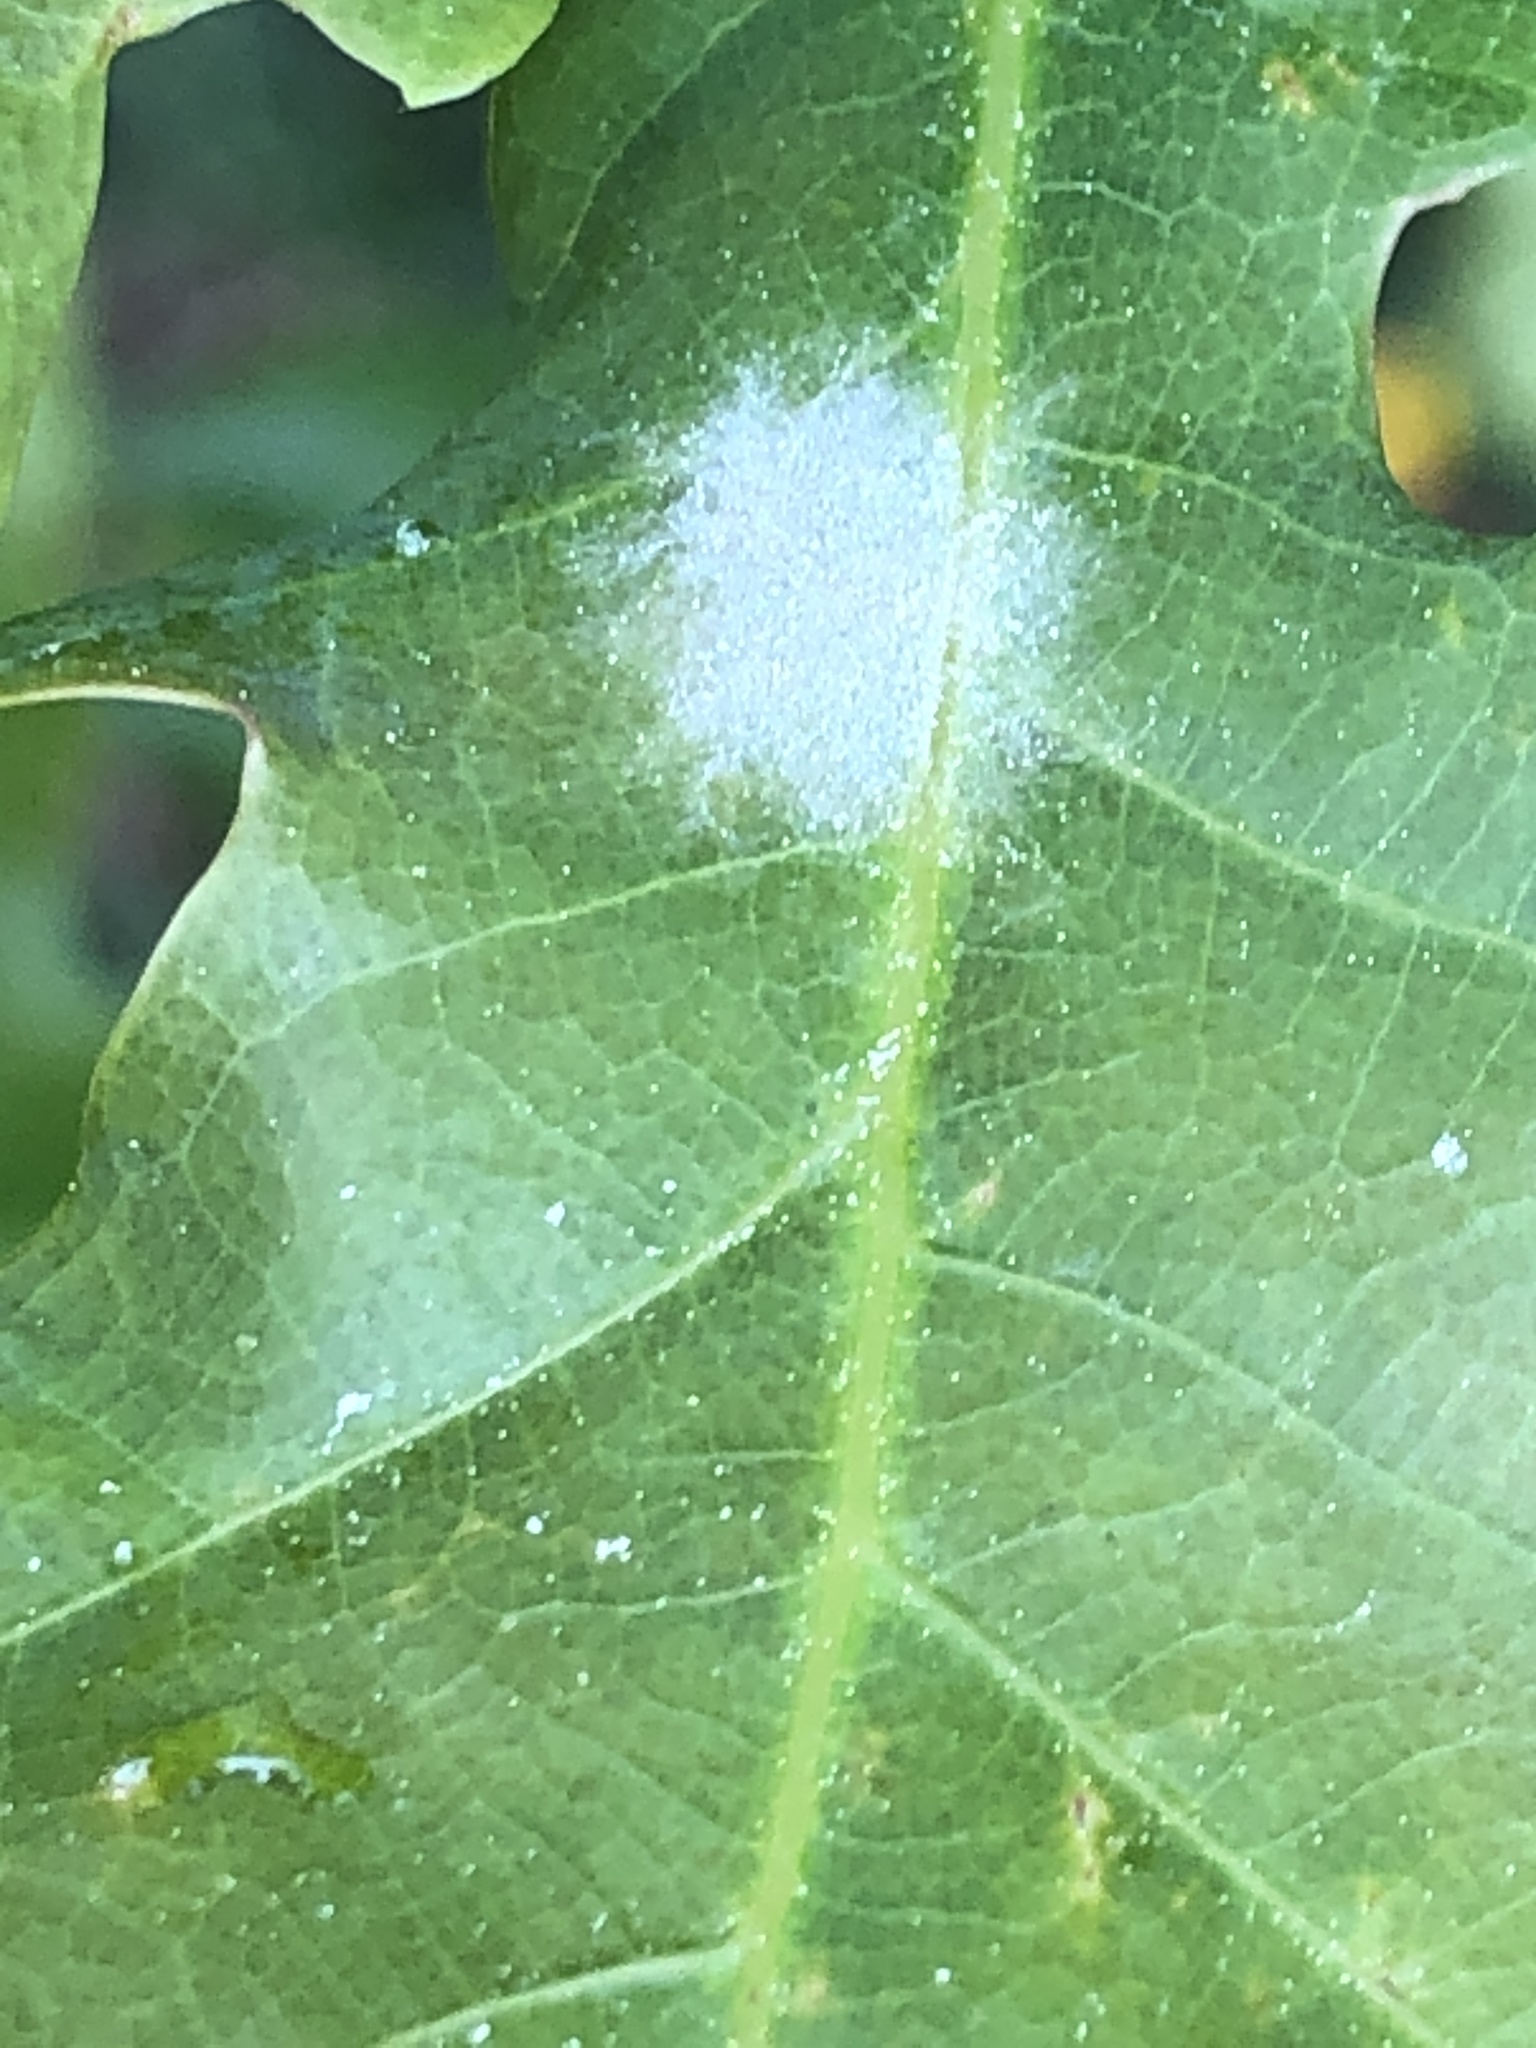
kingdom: Fungi
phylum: Ascomycota
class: Leotiomycetes
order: Helotiales
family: Erysiphaceae
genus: Erysiphe
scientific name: Erysiphe
